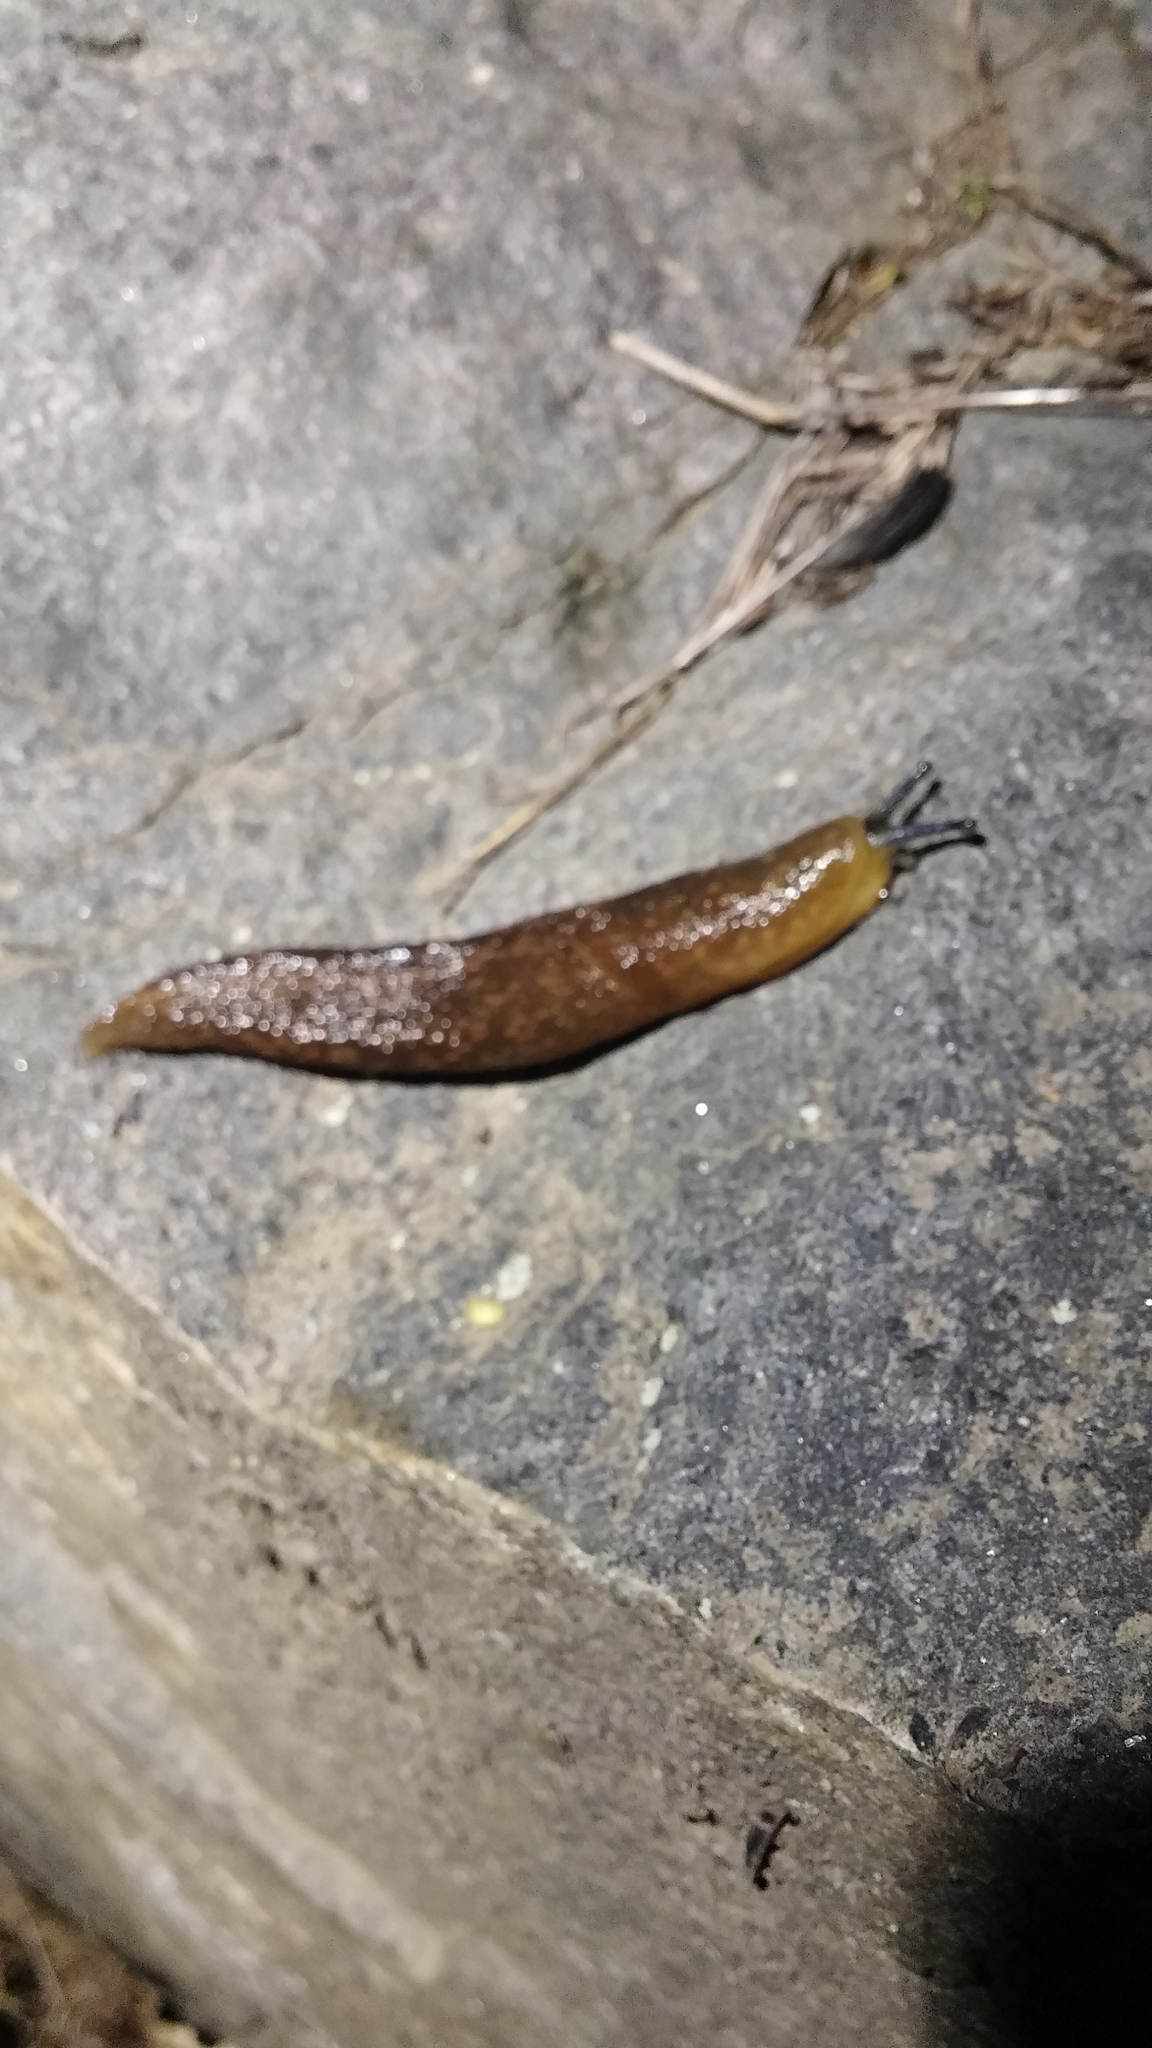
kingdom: Animalia
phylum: Mollusca
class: Gastropoda
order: Stylommatophora
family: Limacidae
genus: Limacus
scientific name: Limacus flavus
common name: Yellow gardenslug
